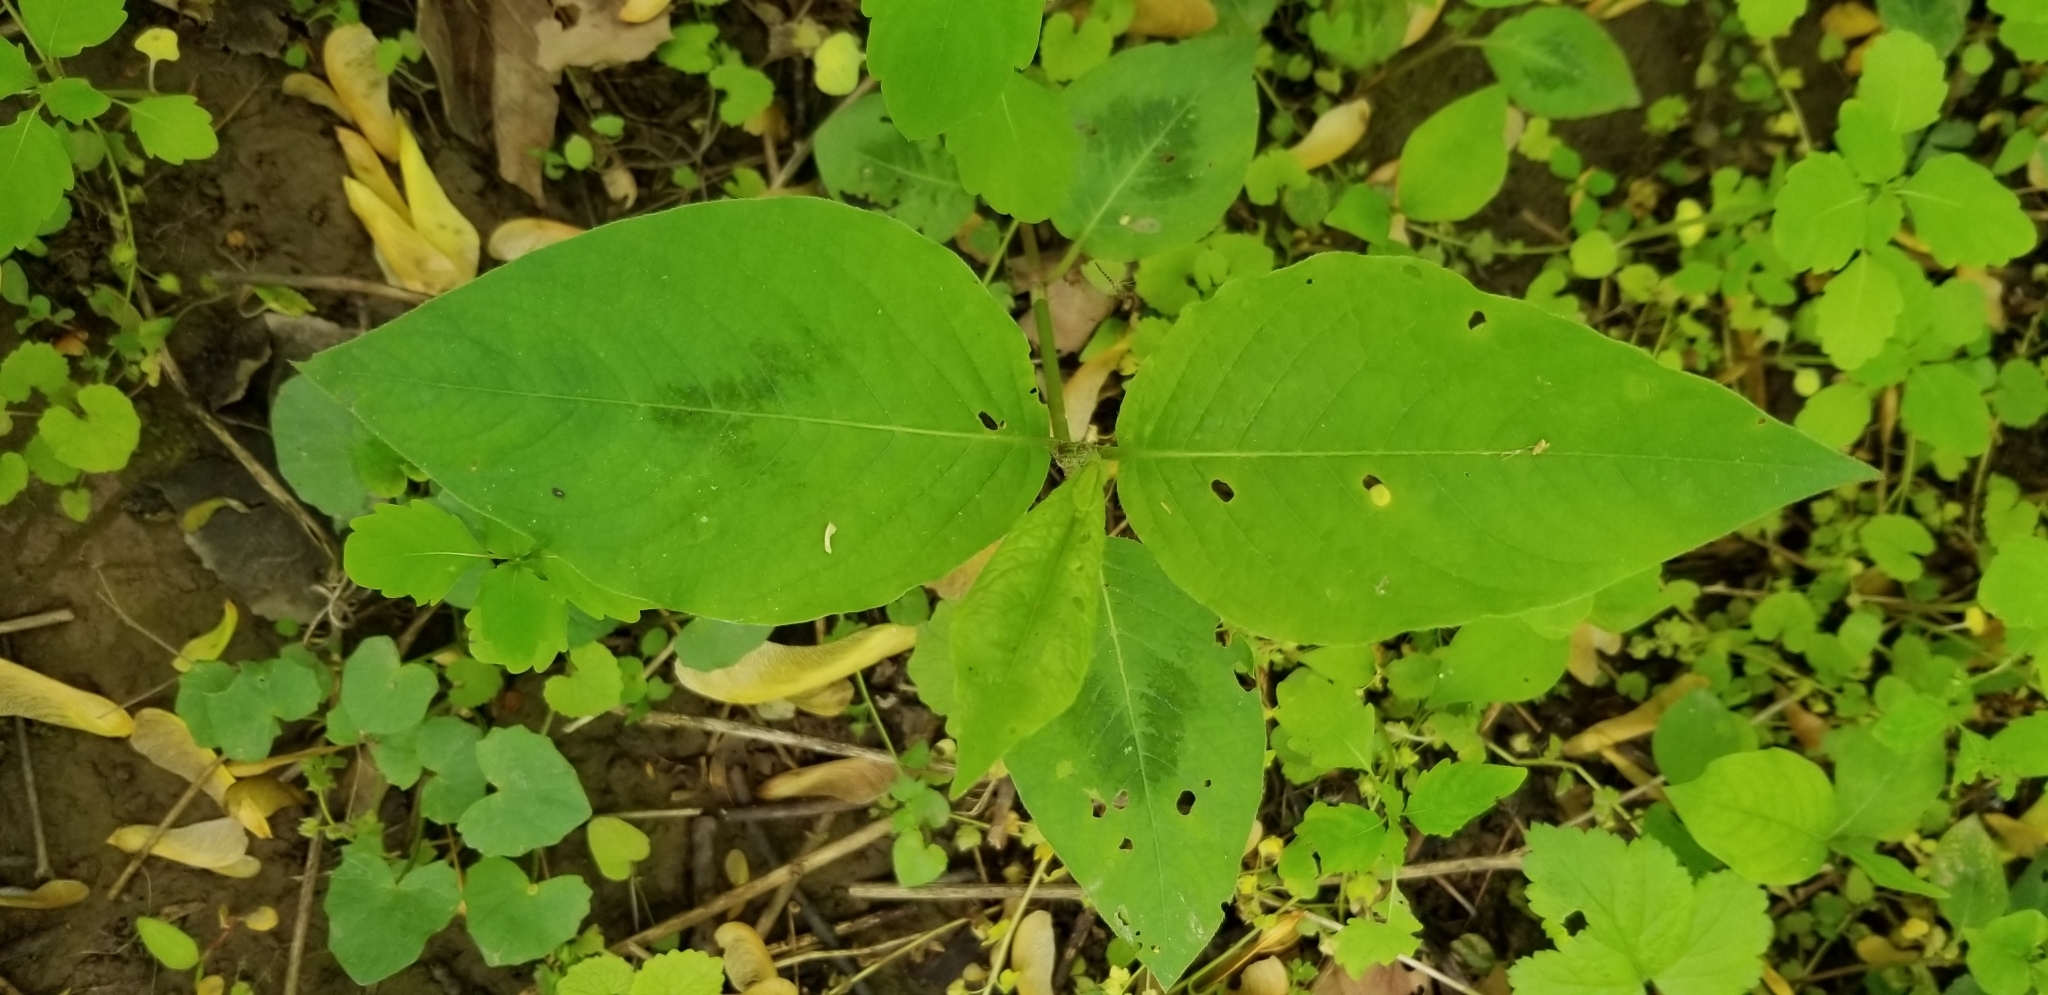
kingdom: Plantae
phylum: Tracheophyta
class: Magnoliopsida
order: Caryophyllales
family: Polygonaceae
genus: Persicaria
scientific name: Persicaria virginiana
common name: Jumpseed
